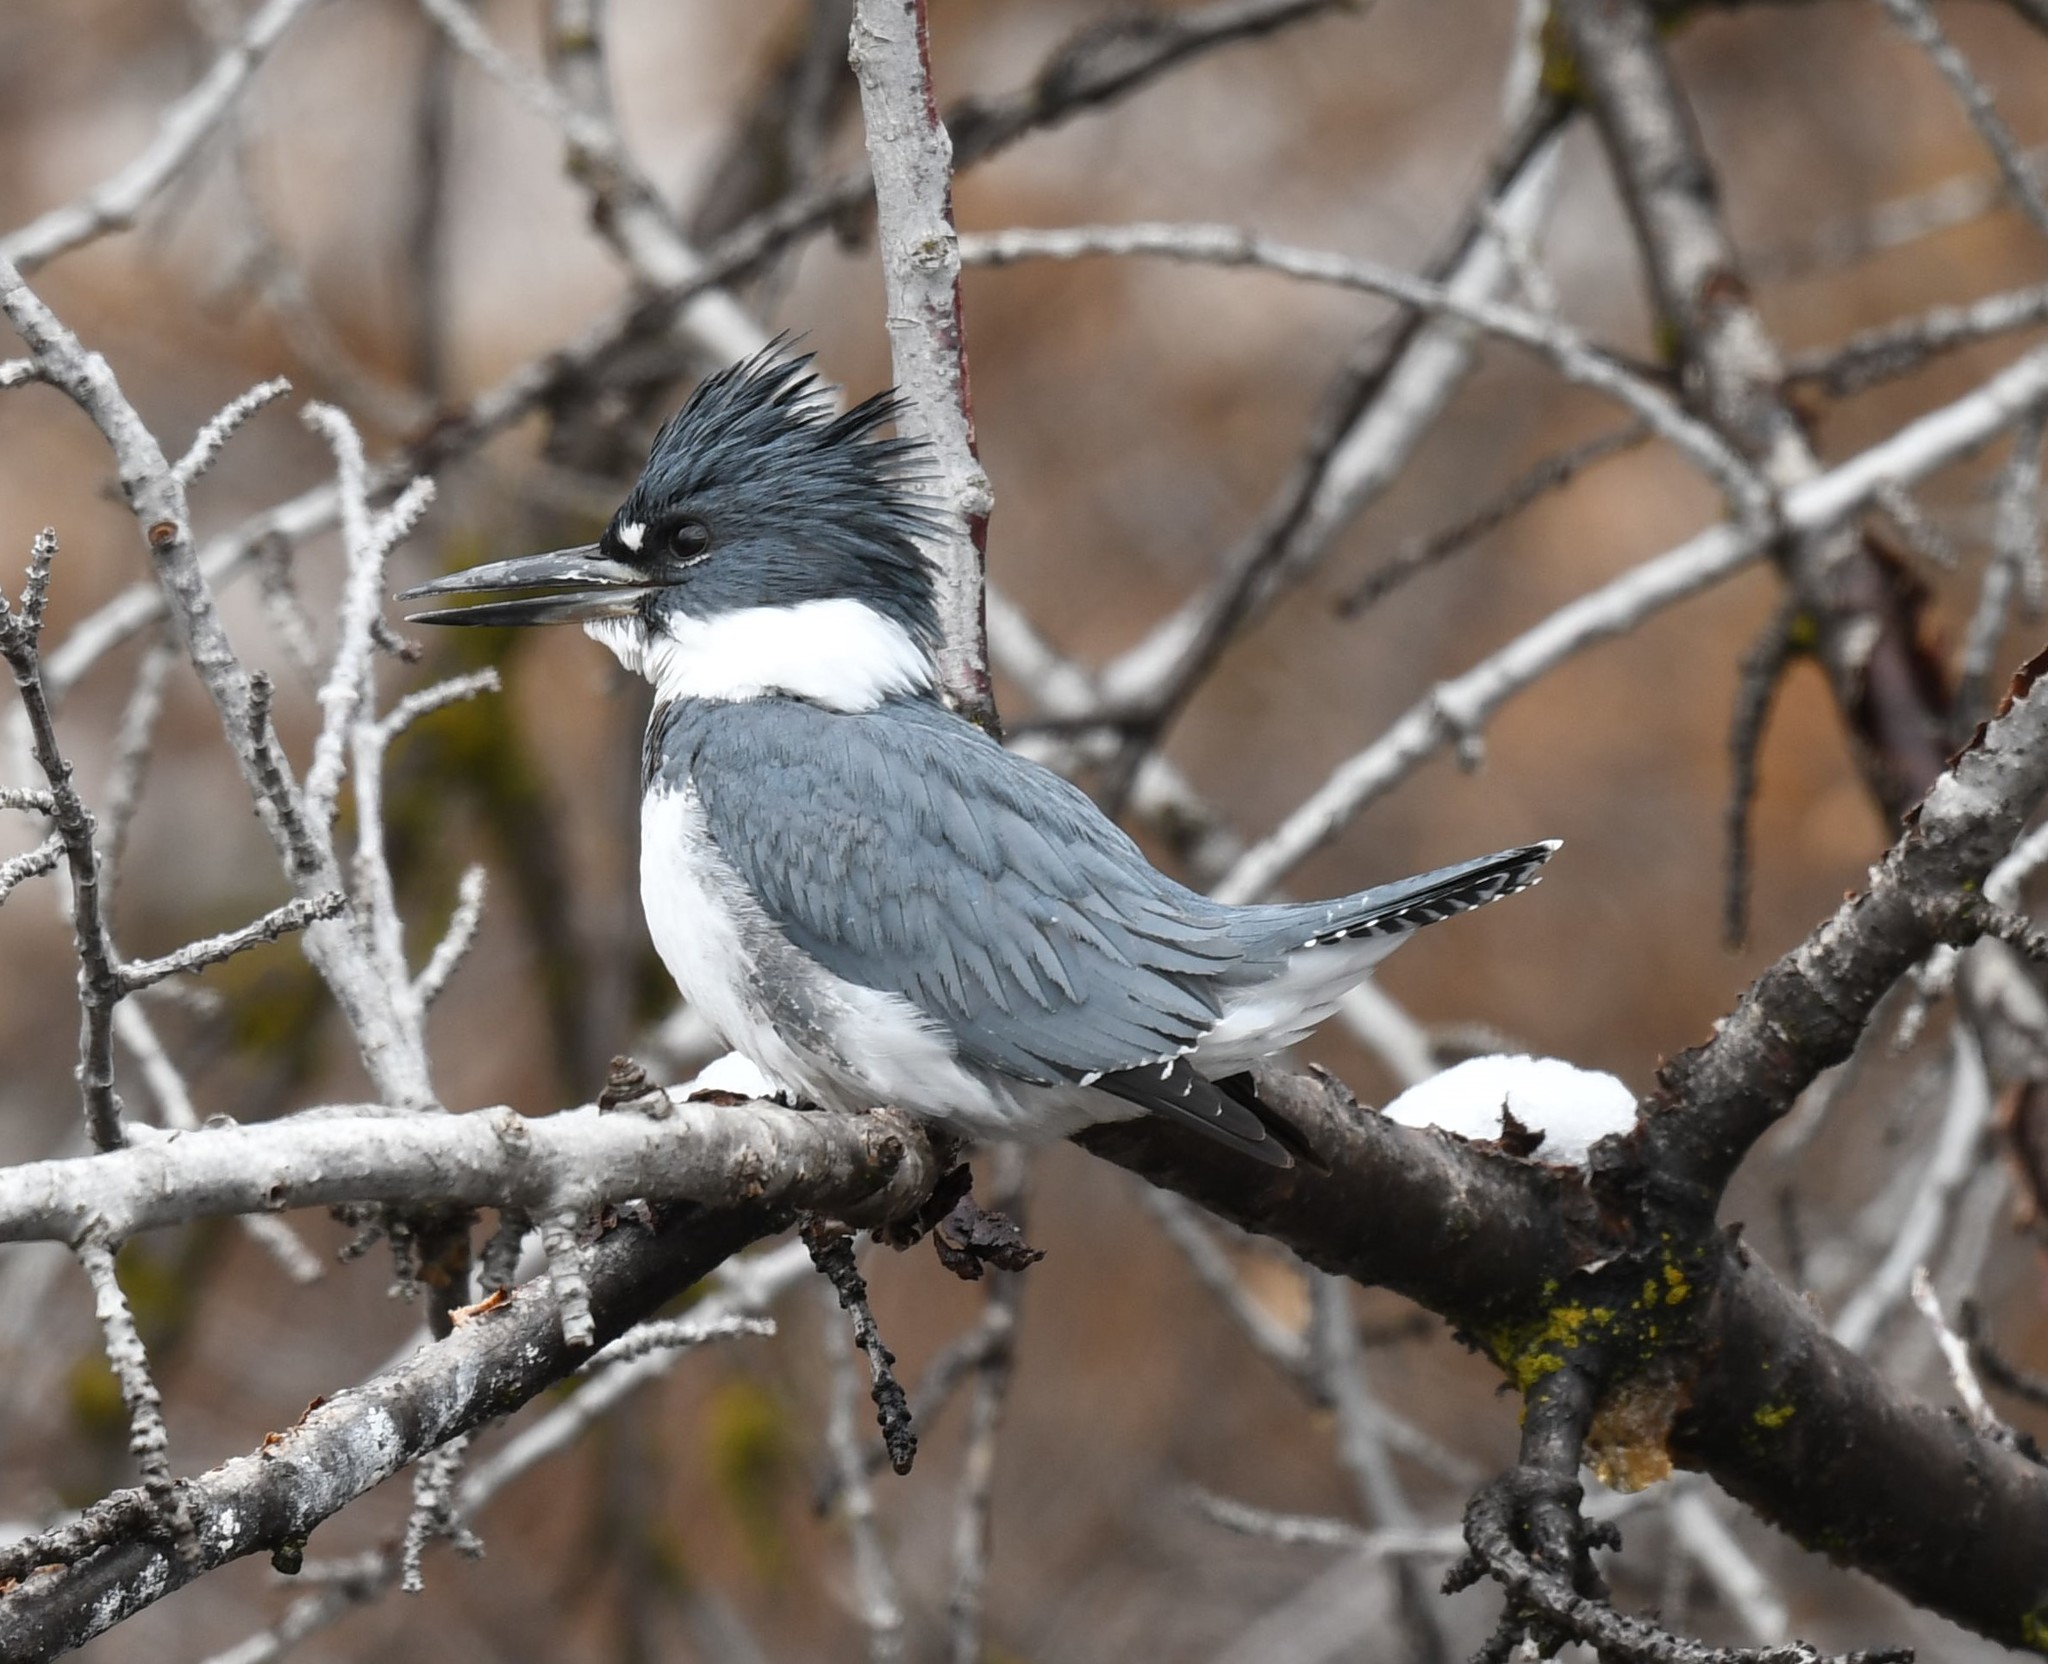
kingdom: Animalia
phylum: Chordata
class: Aves
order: Coraciiformes
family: Alcedinidae
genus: Megaceryle
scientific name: Megaceryle alcyon
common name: Belted kingfisher
